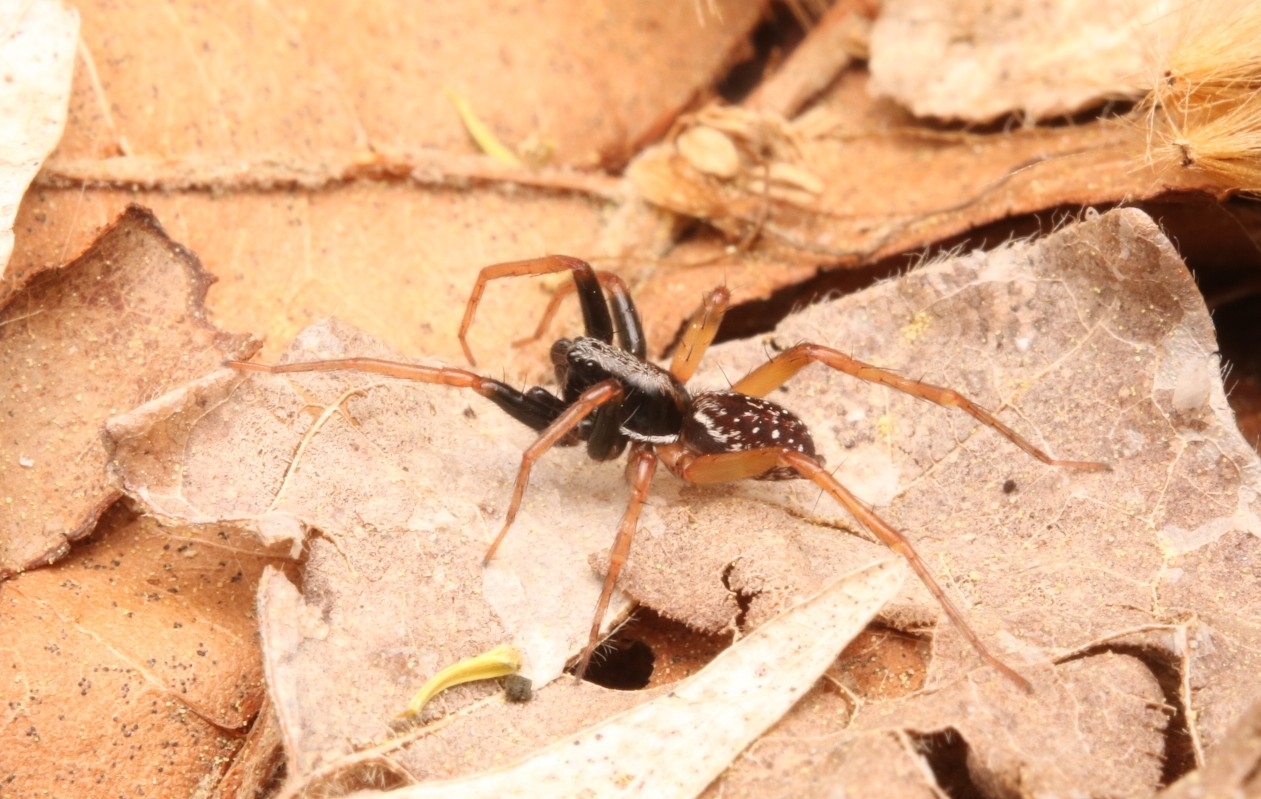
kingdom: Animalia
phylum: Arthropoda
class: Arachnida
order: Araneae
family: Lycosidae
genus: Pirata
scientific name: Pirata montanus
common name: Dark-legged pirate wolf spider
